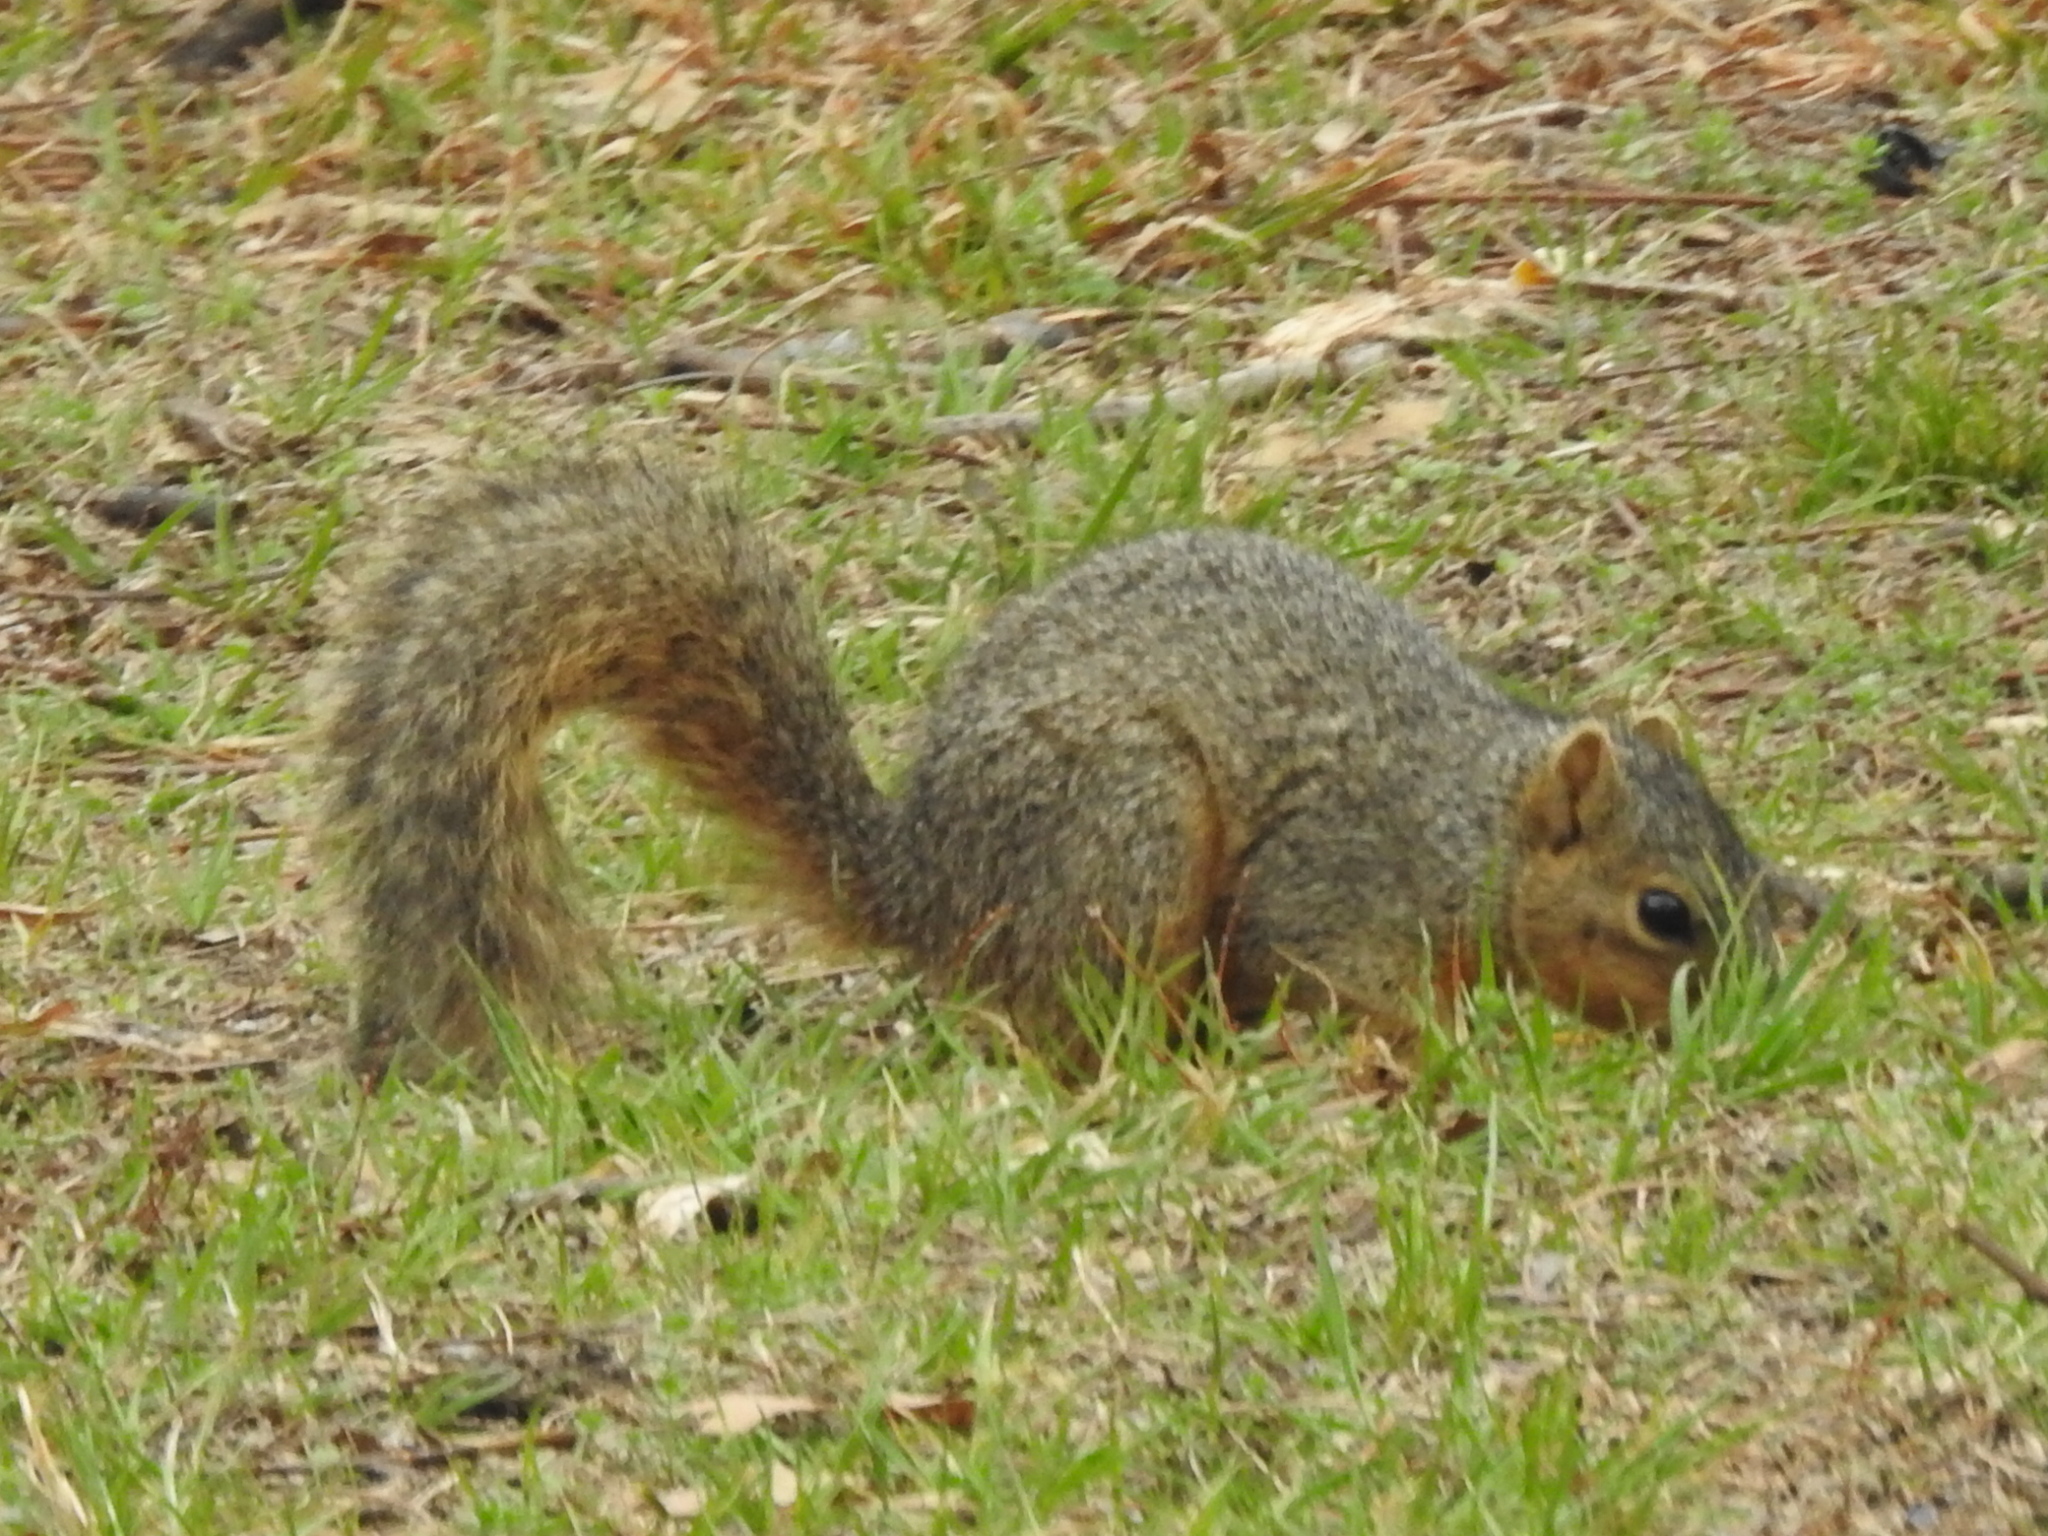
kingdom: Animalia
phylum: Chordata
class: Mammalia
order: Rodentia
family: Sciuridae
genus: Sciurus
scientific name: Sciurus niger
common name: Fox squirrel
